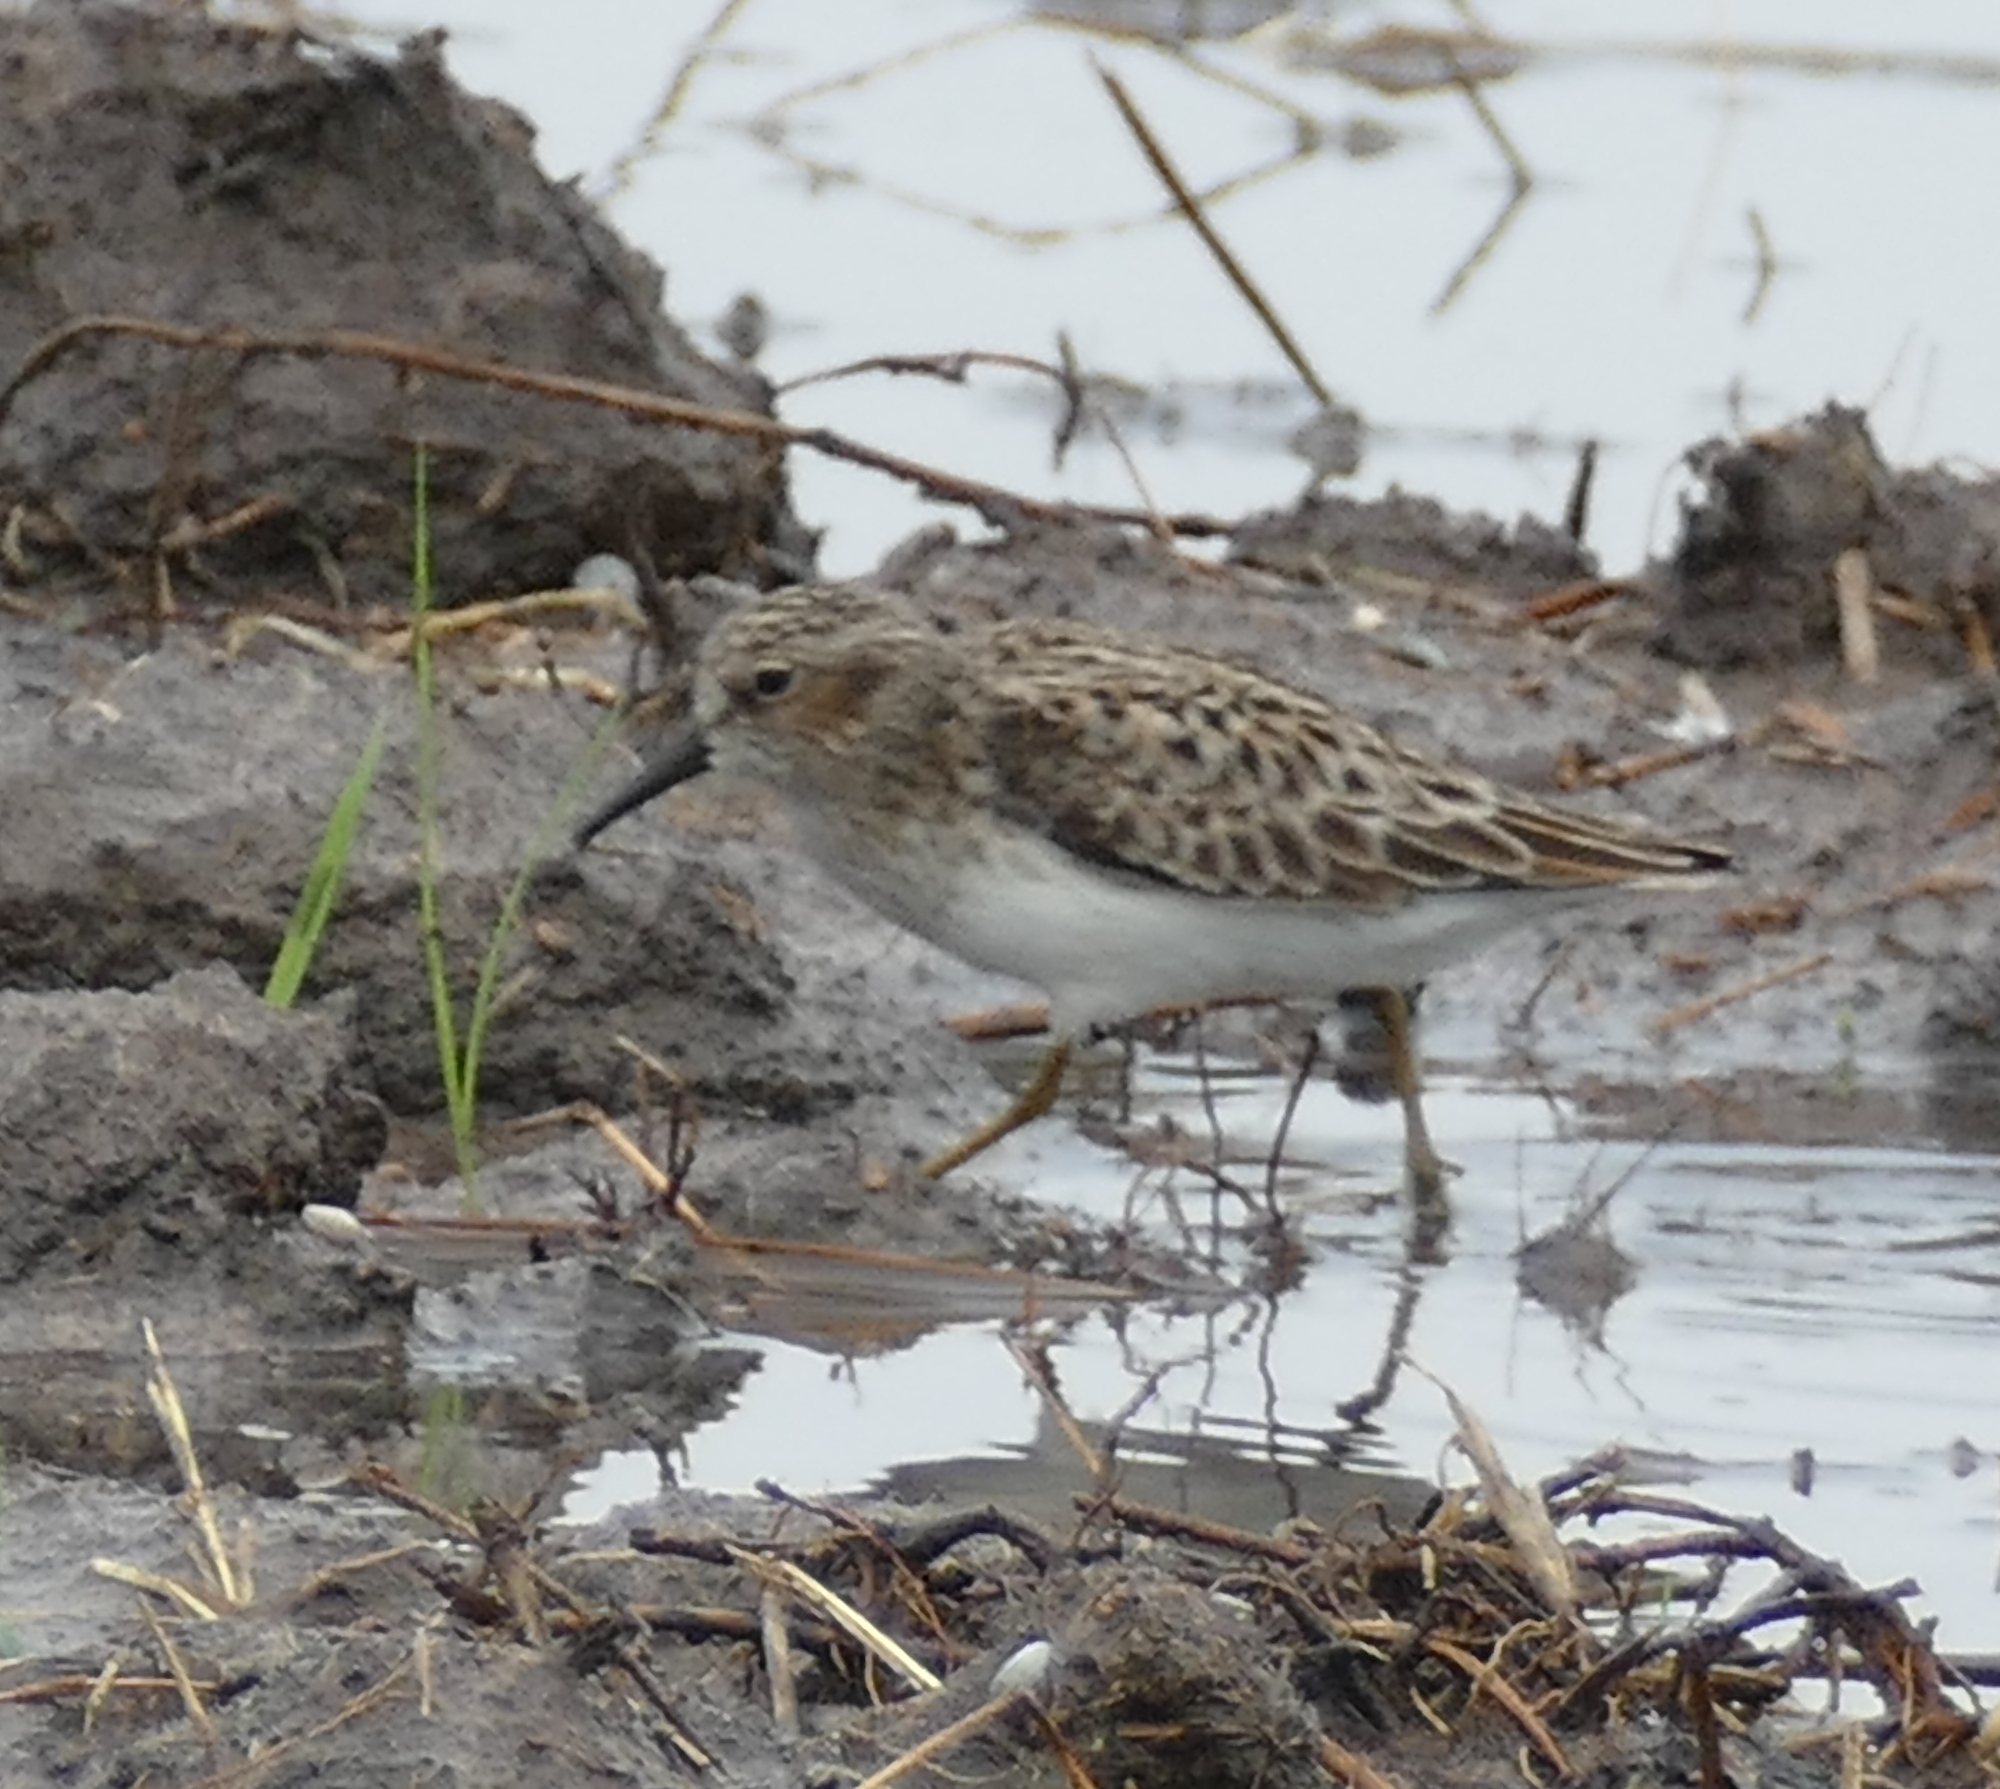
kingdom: Animalia
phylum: Chordata
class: Aves
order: Charadriiformes
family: Scolopacidae
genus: Calidris
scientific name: Calidris minutilla
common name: Least sandpiper
